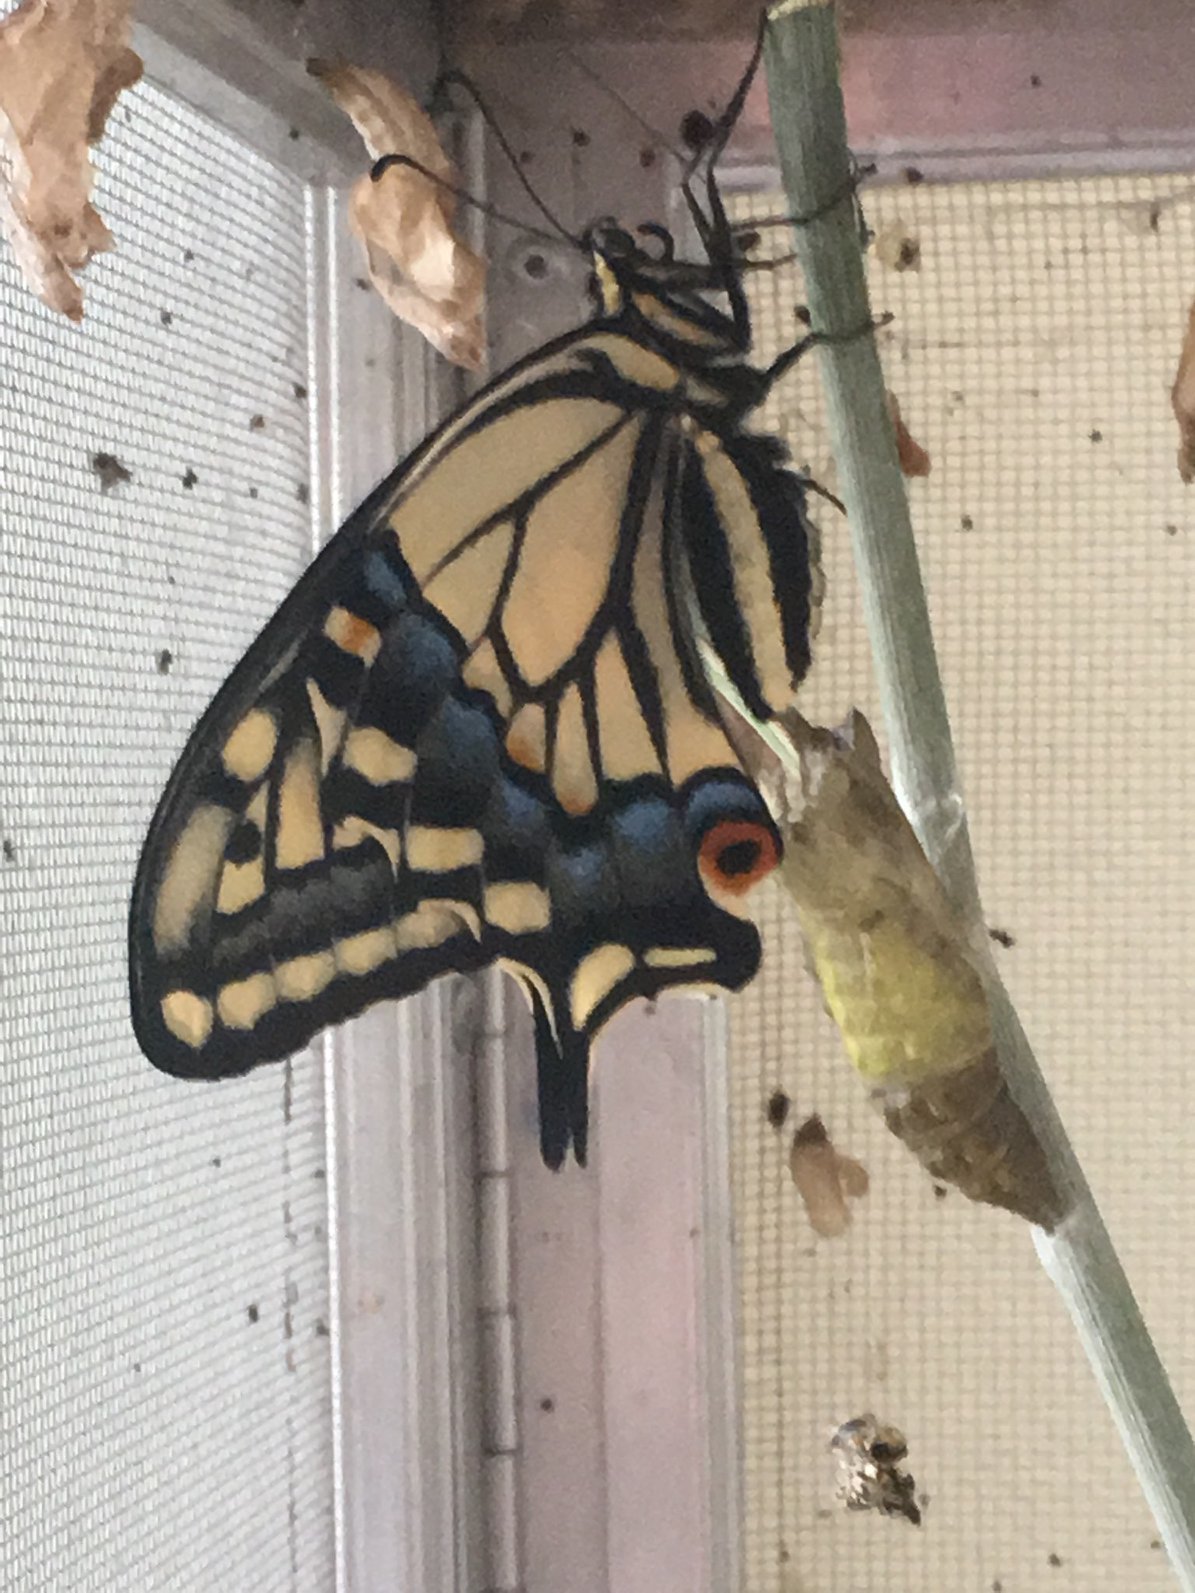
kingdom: Animalia
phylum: Arthropoda
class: Insecta
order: Lepidoptera
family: Papilionidae
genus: Papilio
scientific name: Papilio zelicaon
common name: Anise swallowtail
